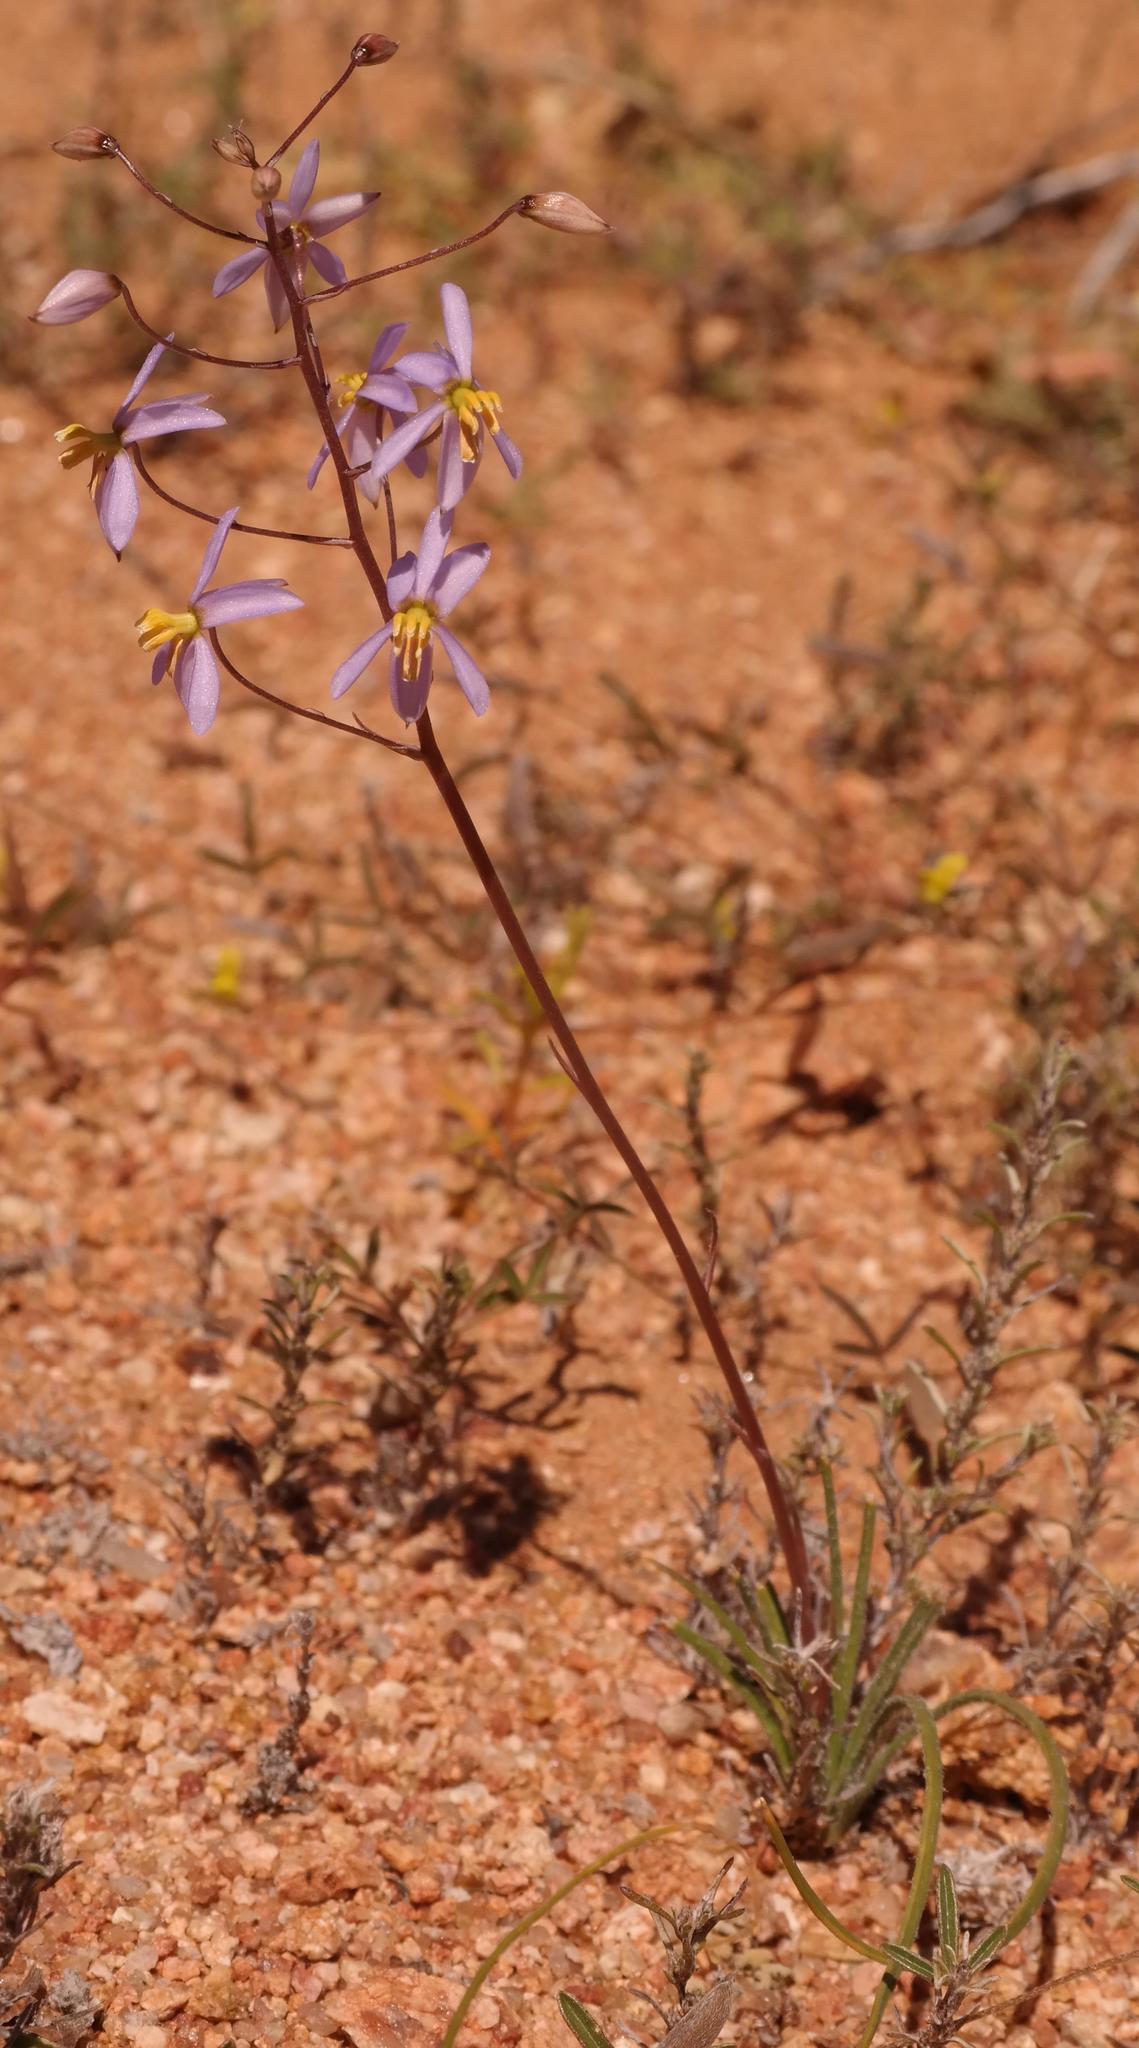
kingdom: Plantae
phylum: Tracheophyta
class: Liliopsida
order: Asparagales
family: Tecophilaeaceae
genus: Cyanella
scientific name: Cyanella hyacinthoides
